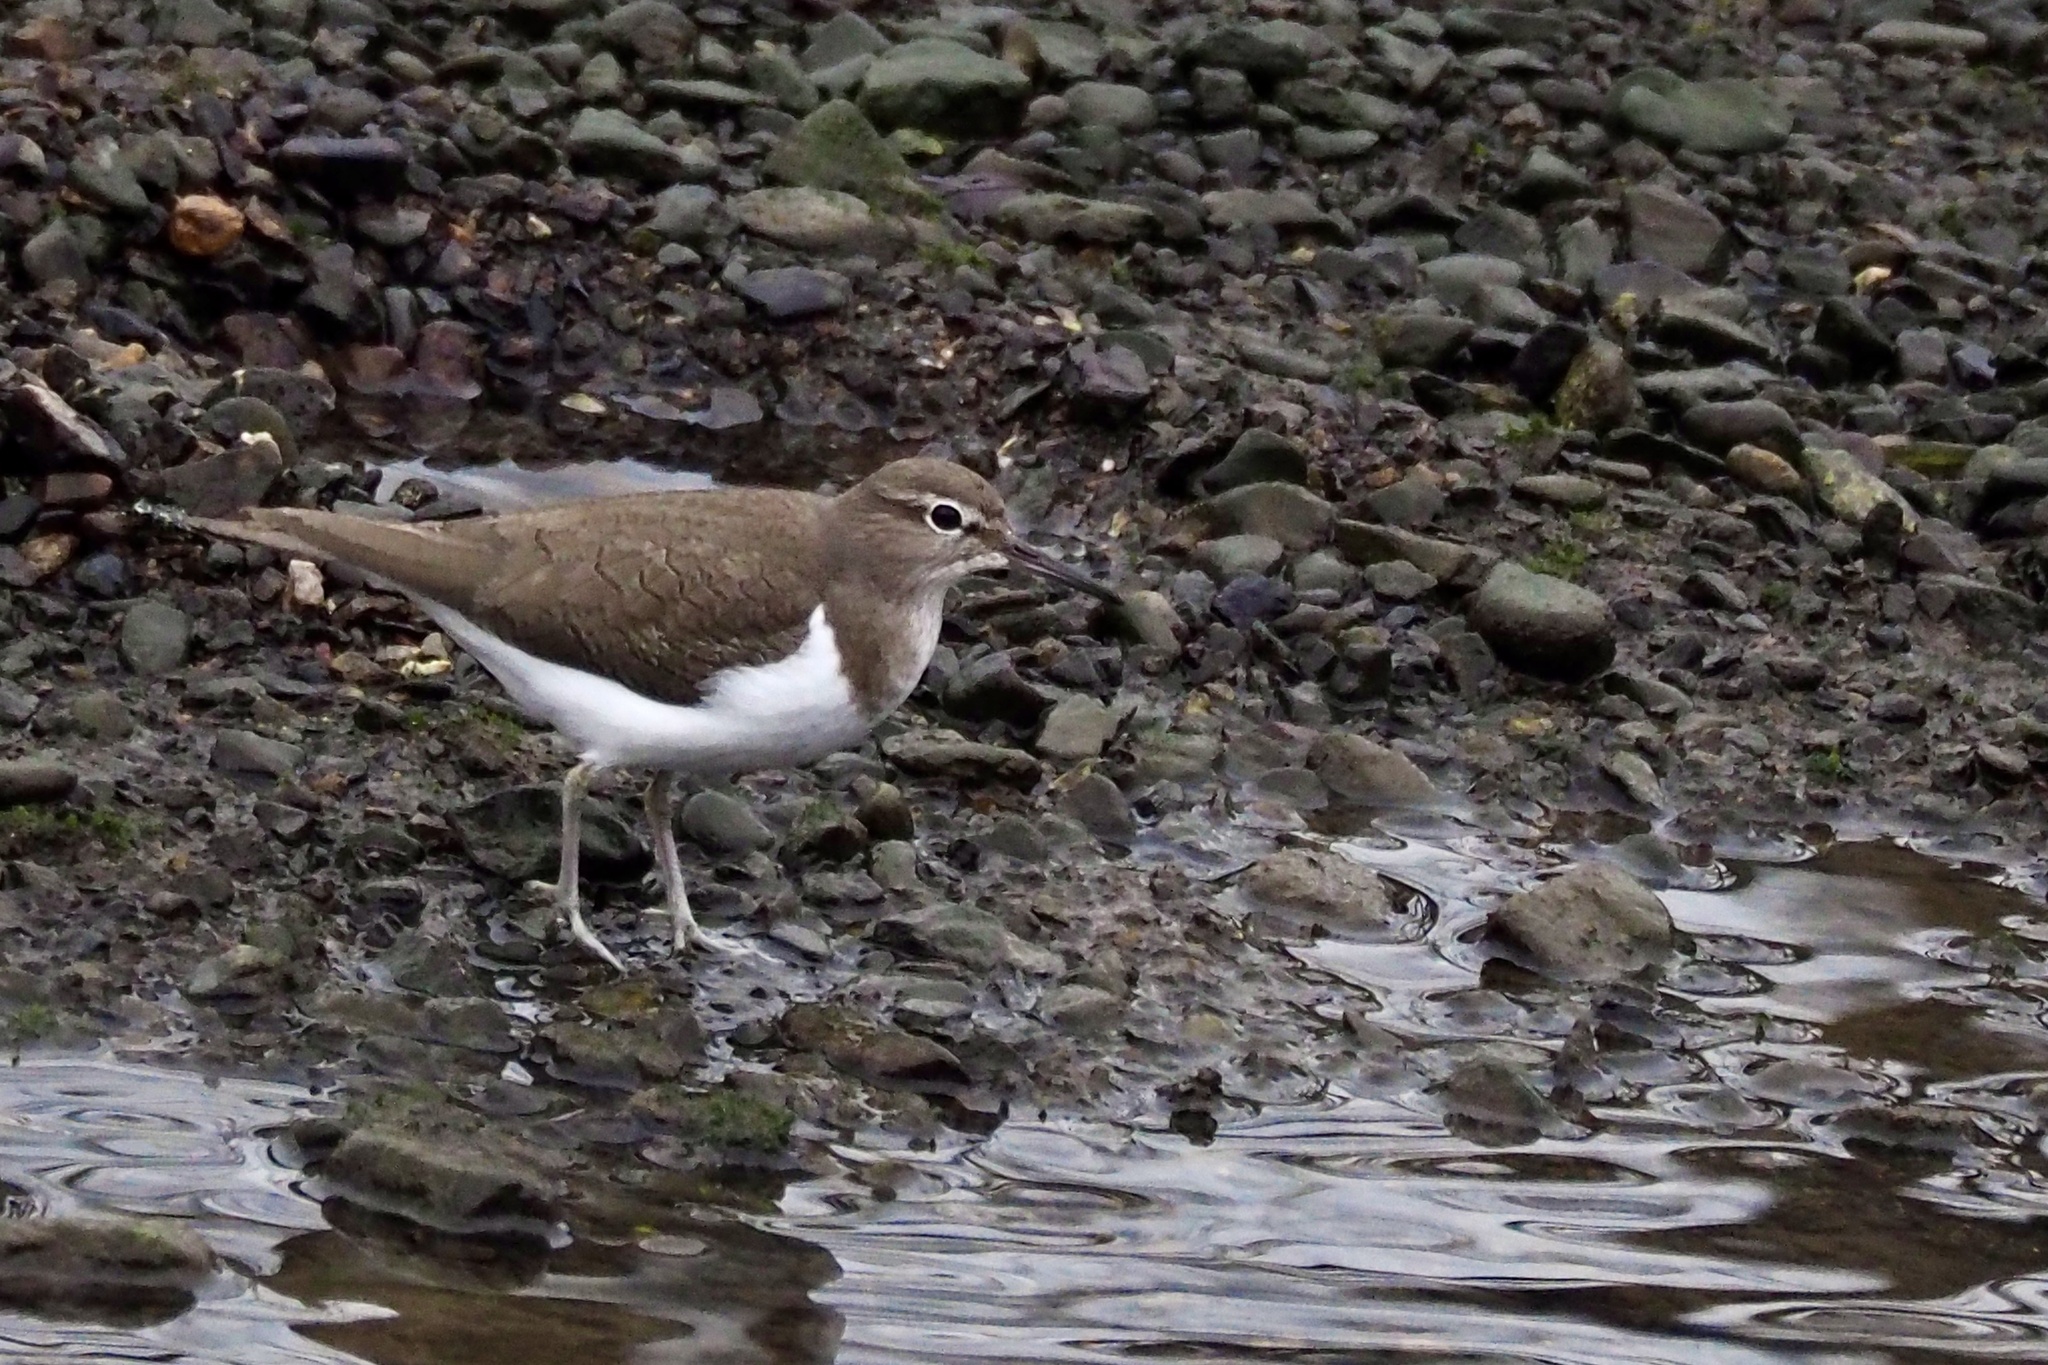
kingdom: Animalia
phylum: Chordata
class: Aves
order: Charadriiformes
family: Scolopacidae
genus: Actitis
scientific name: Actitis hypoleucos
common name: Common sandpiper
